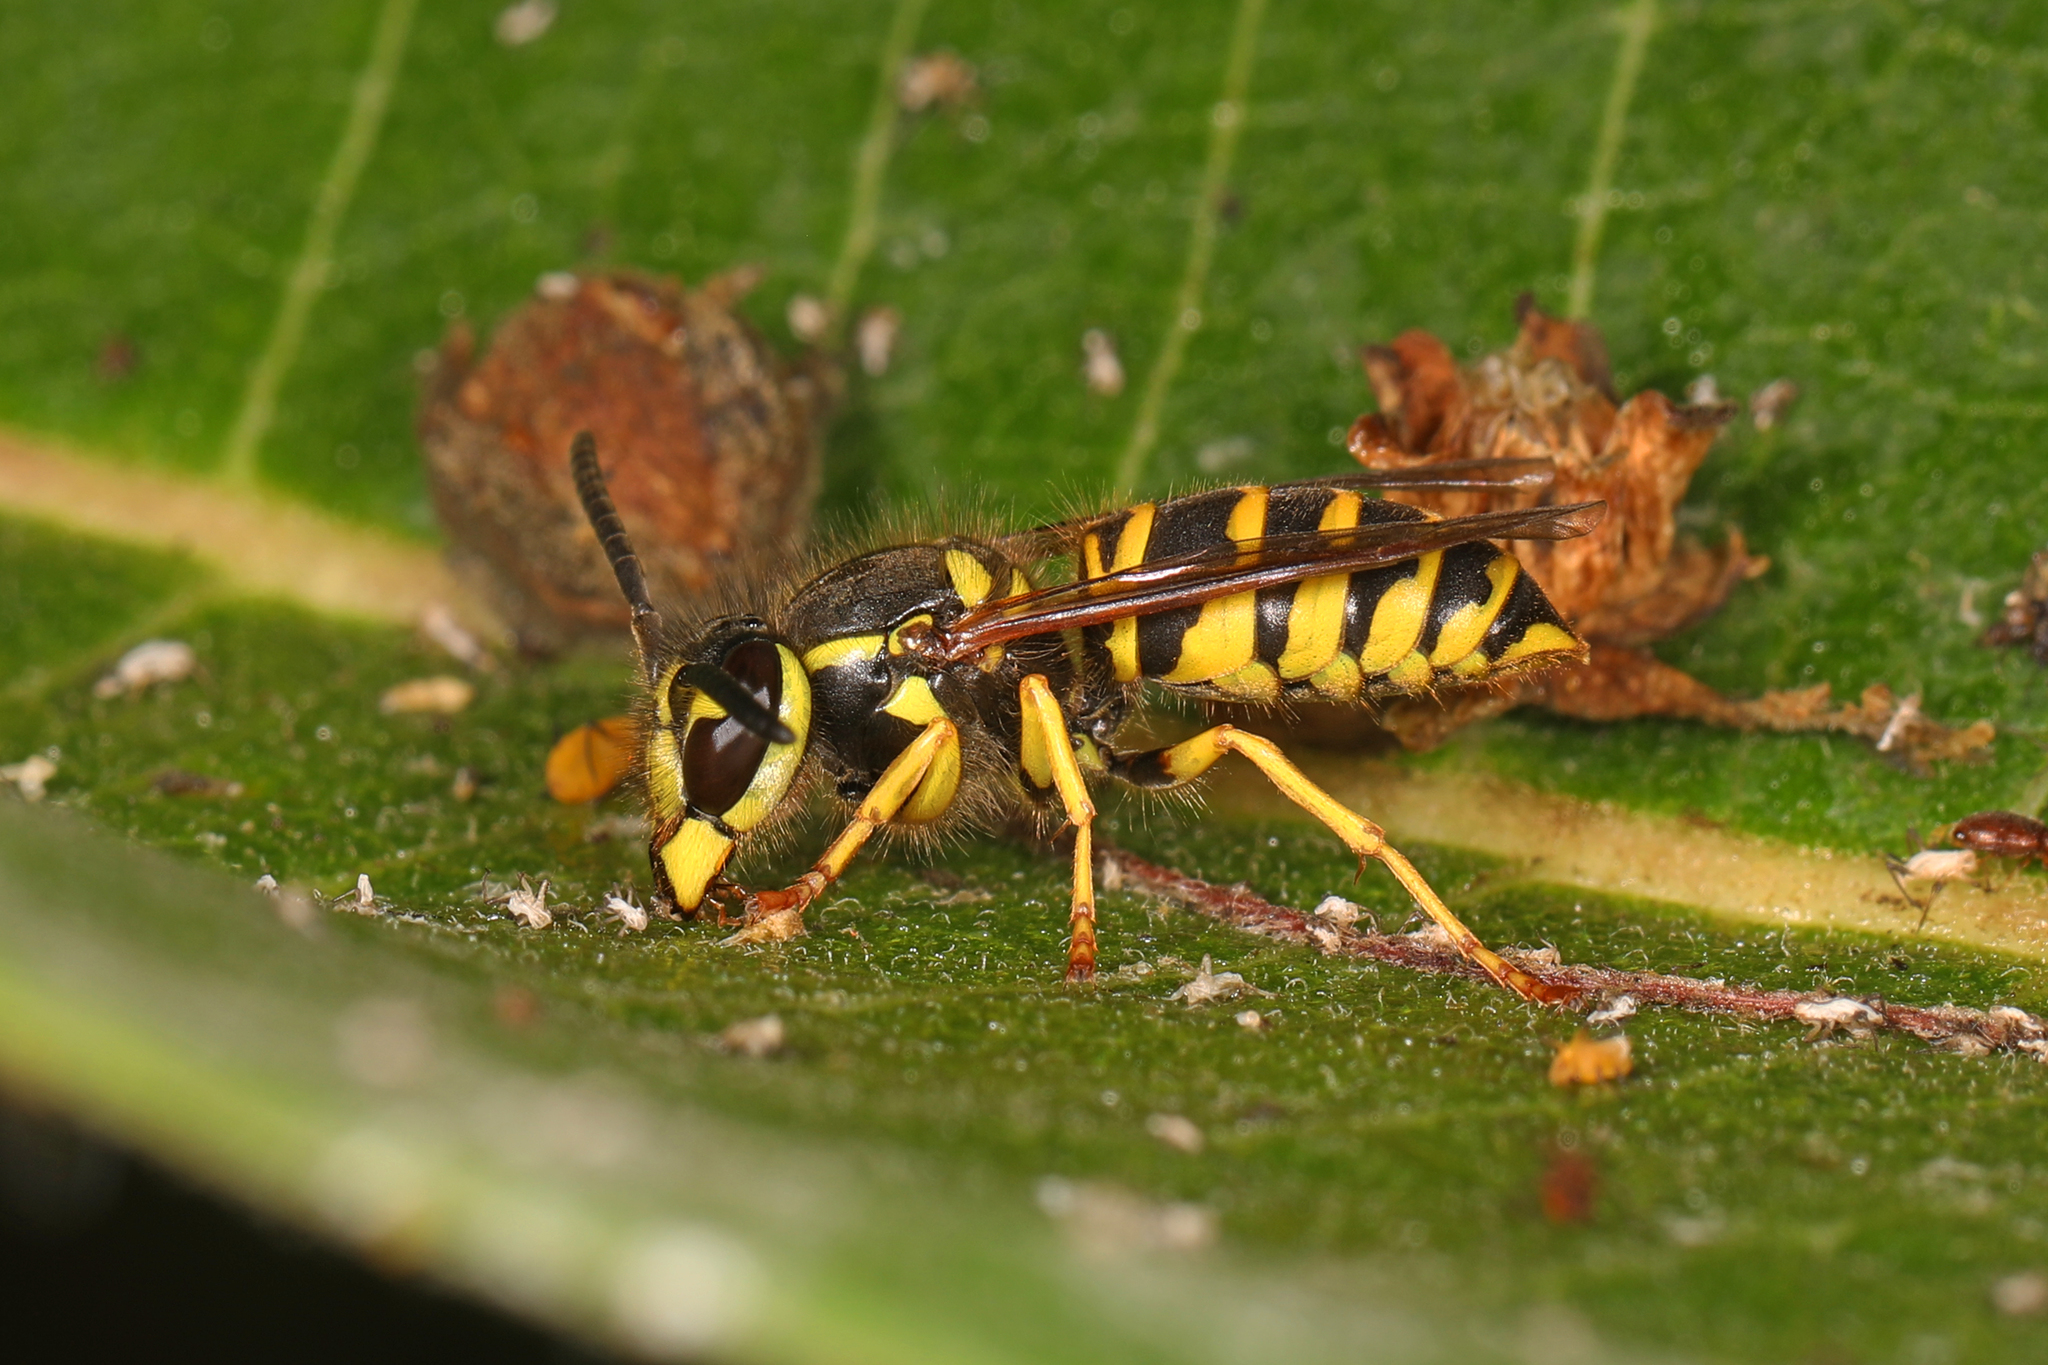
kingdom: Animalia
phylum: Arthropoda
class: Insecta
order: Hymenoptera
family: Vespidae
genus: Vespula
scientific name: Vespula maculifrons
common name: Eastern yellowjacket
